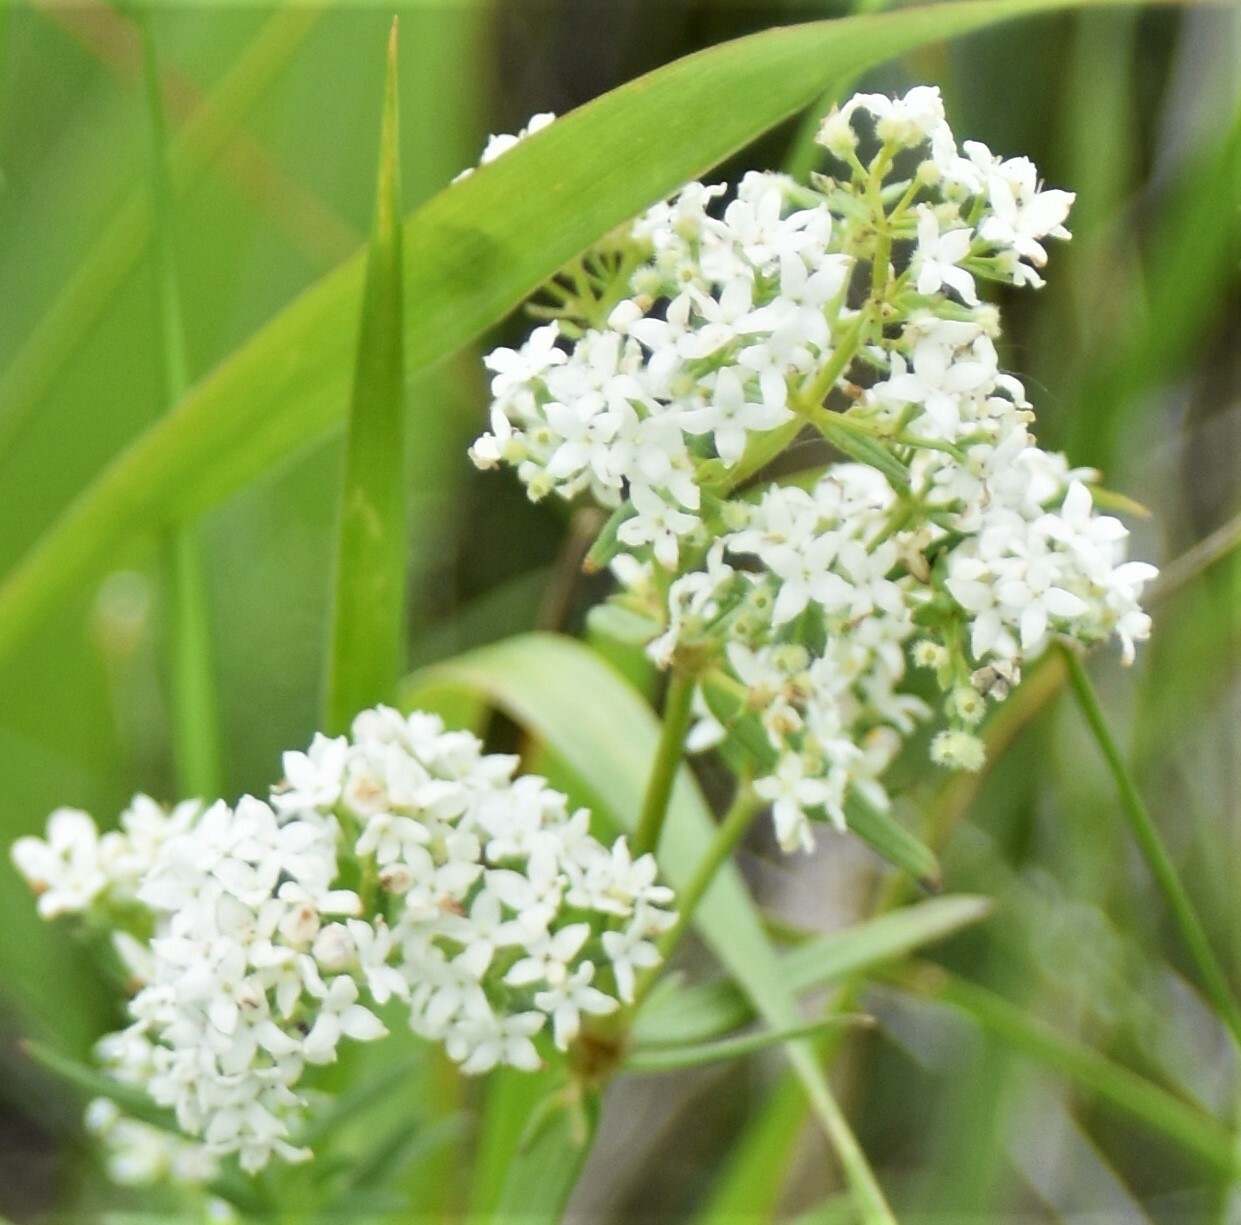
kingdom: Plantae
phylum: Tracheophyta
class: Magnoliopsida
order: Gentianales
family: Rubiaceae
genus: Galium
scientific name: Galium boreale
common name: Northern bedstraw
